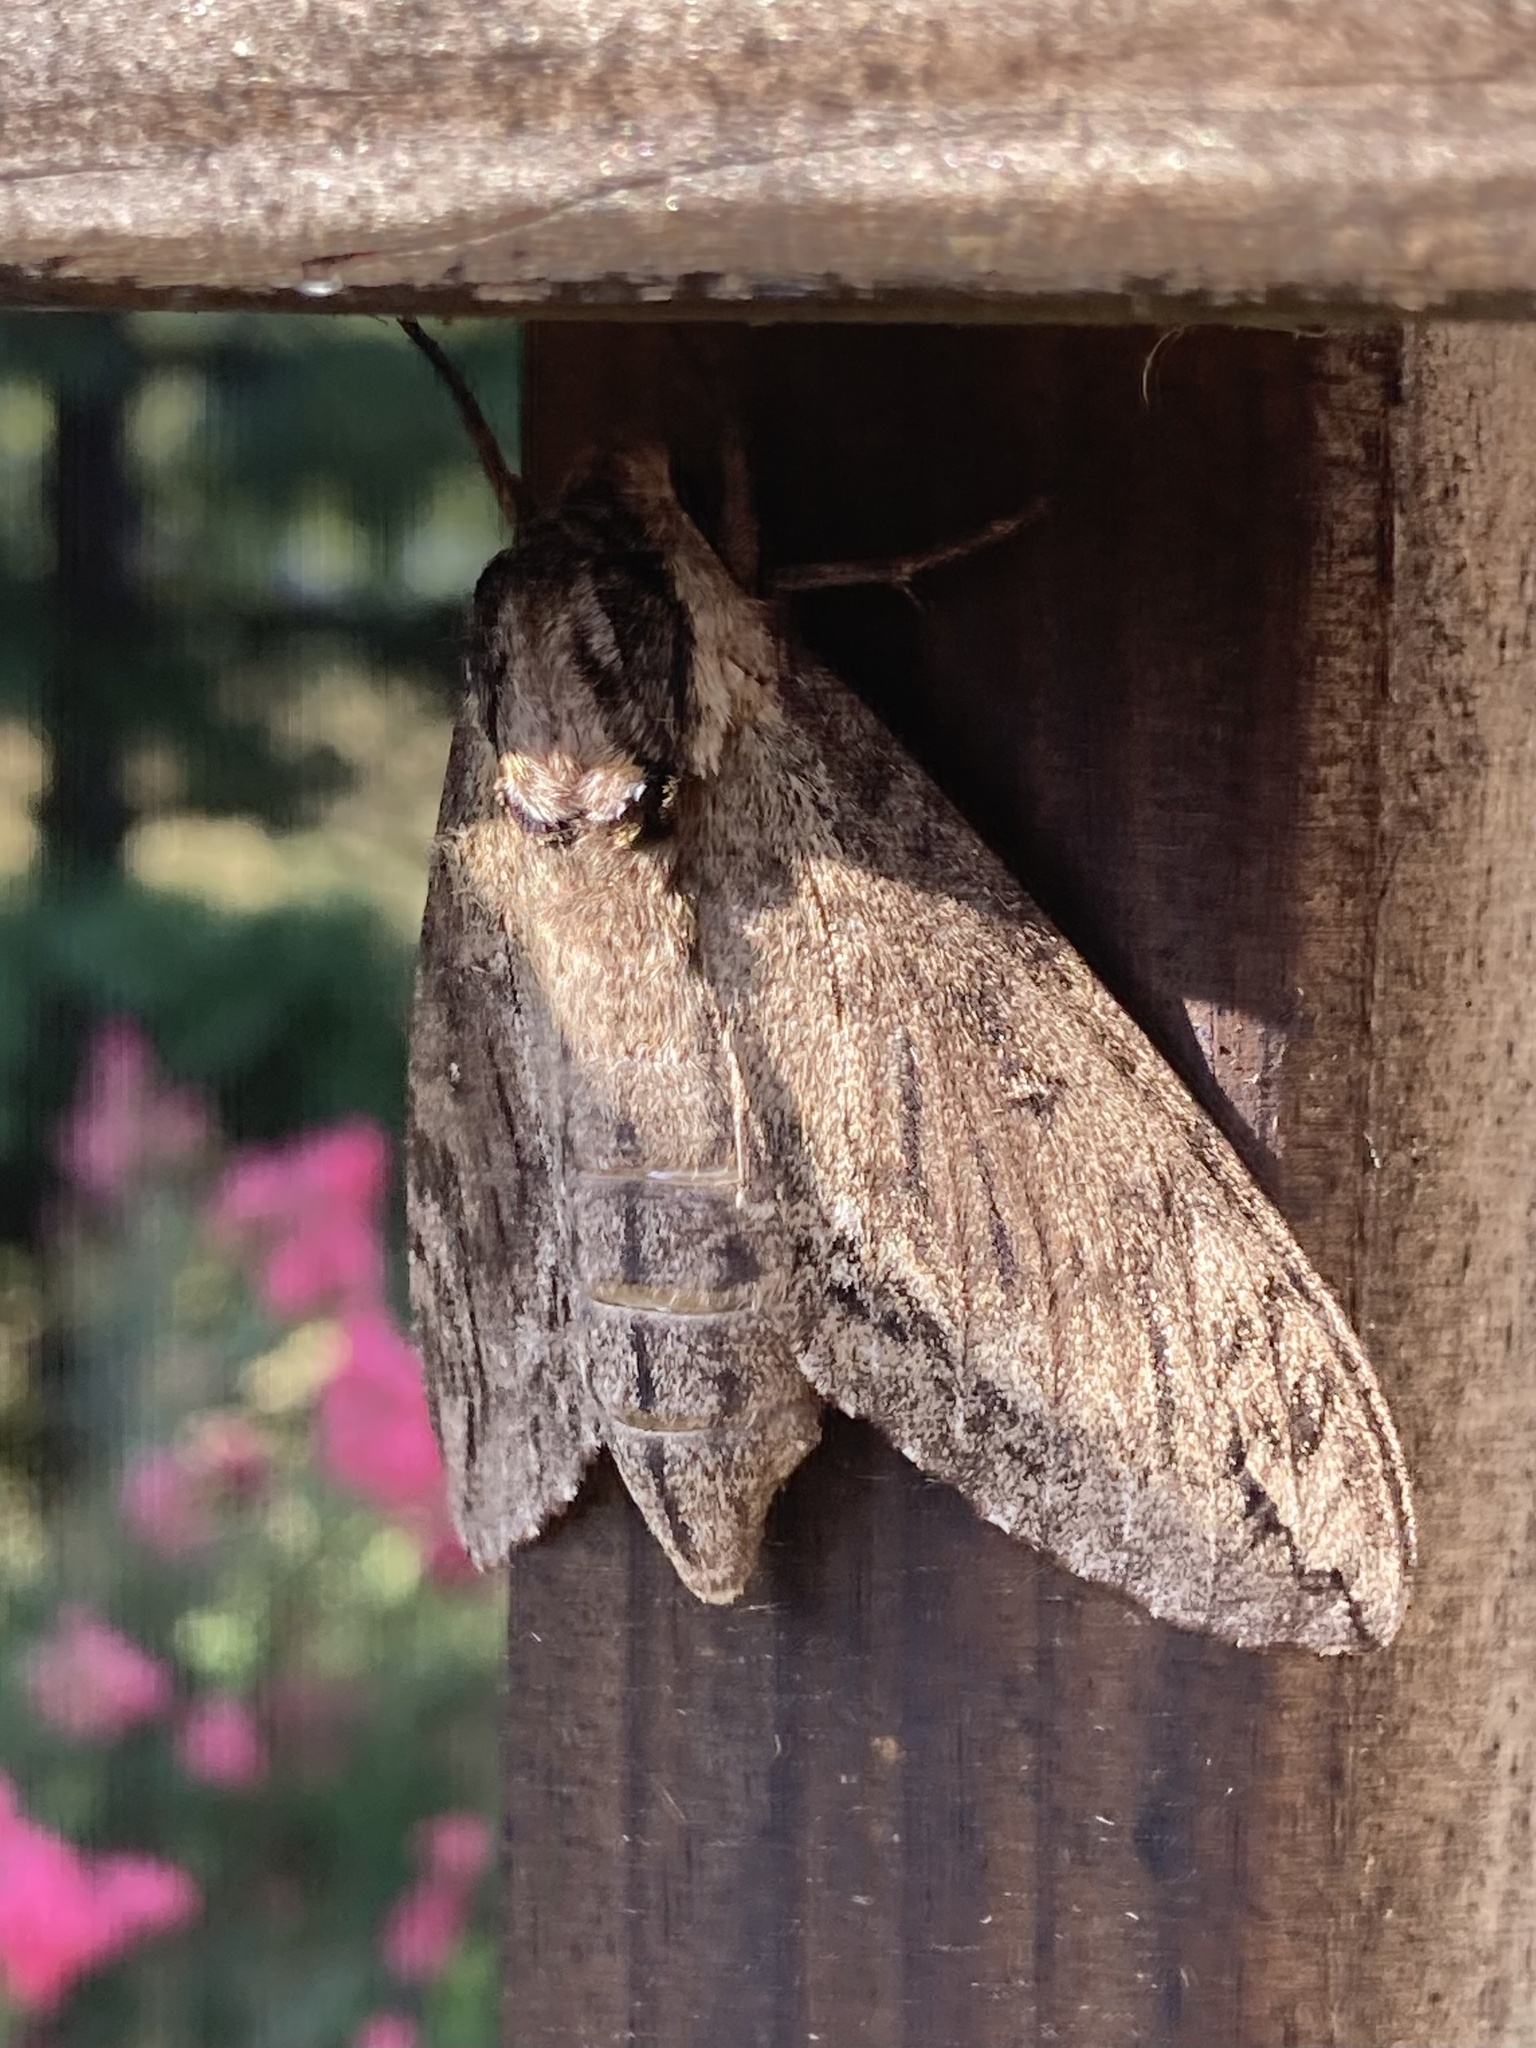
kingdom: Animalia
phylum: Arthropoda
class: Insecta
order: Lepidoptera
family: Sphingidae
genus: Ceratomia
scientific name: Ceratomia catalpae
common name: Catalpa hornworm
